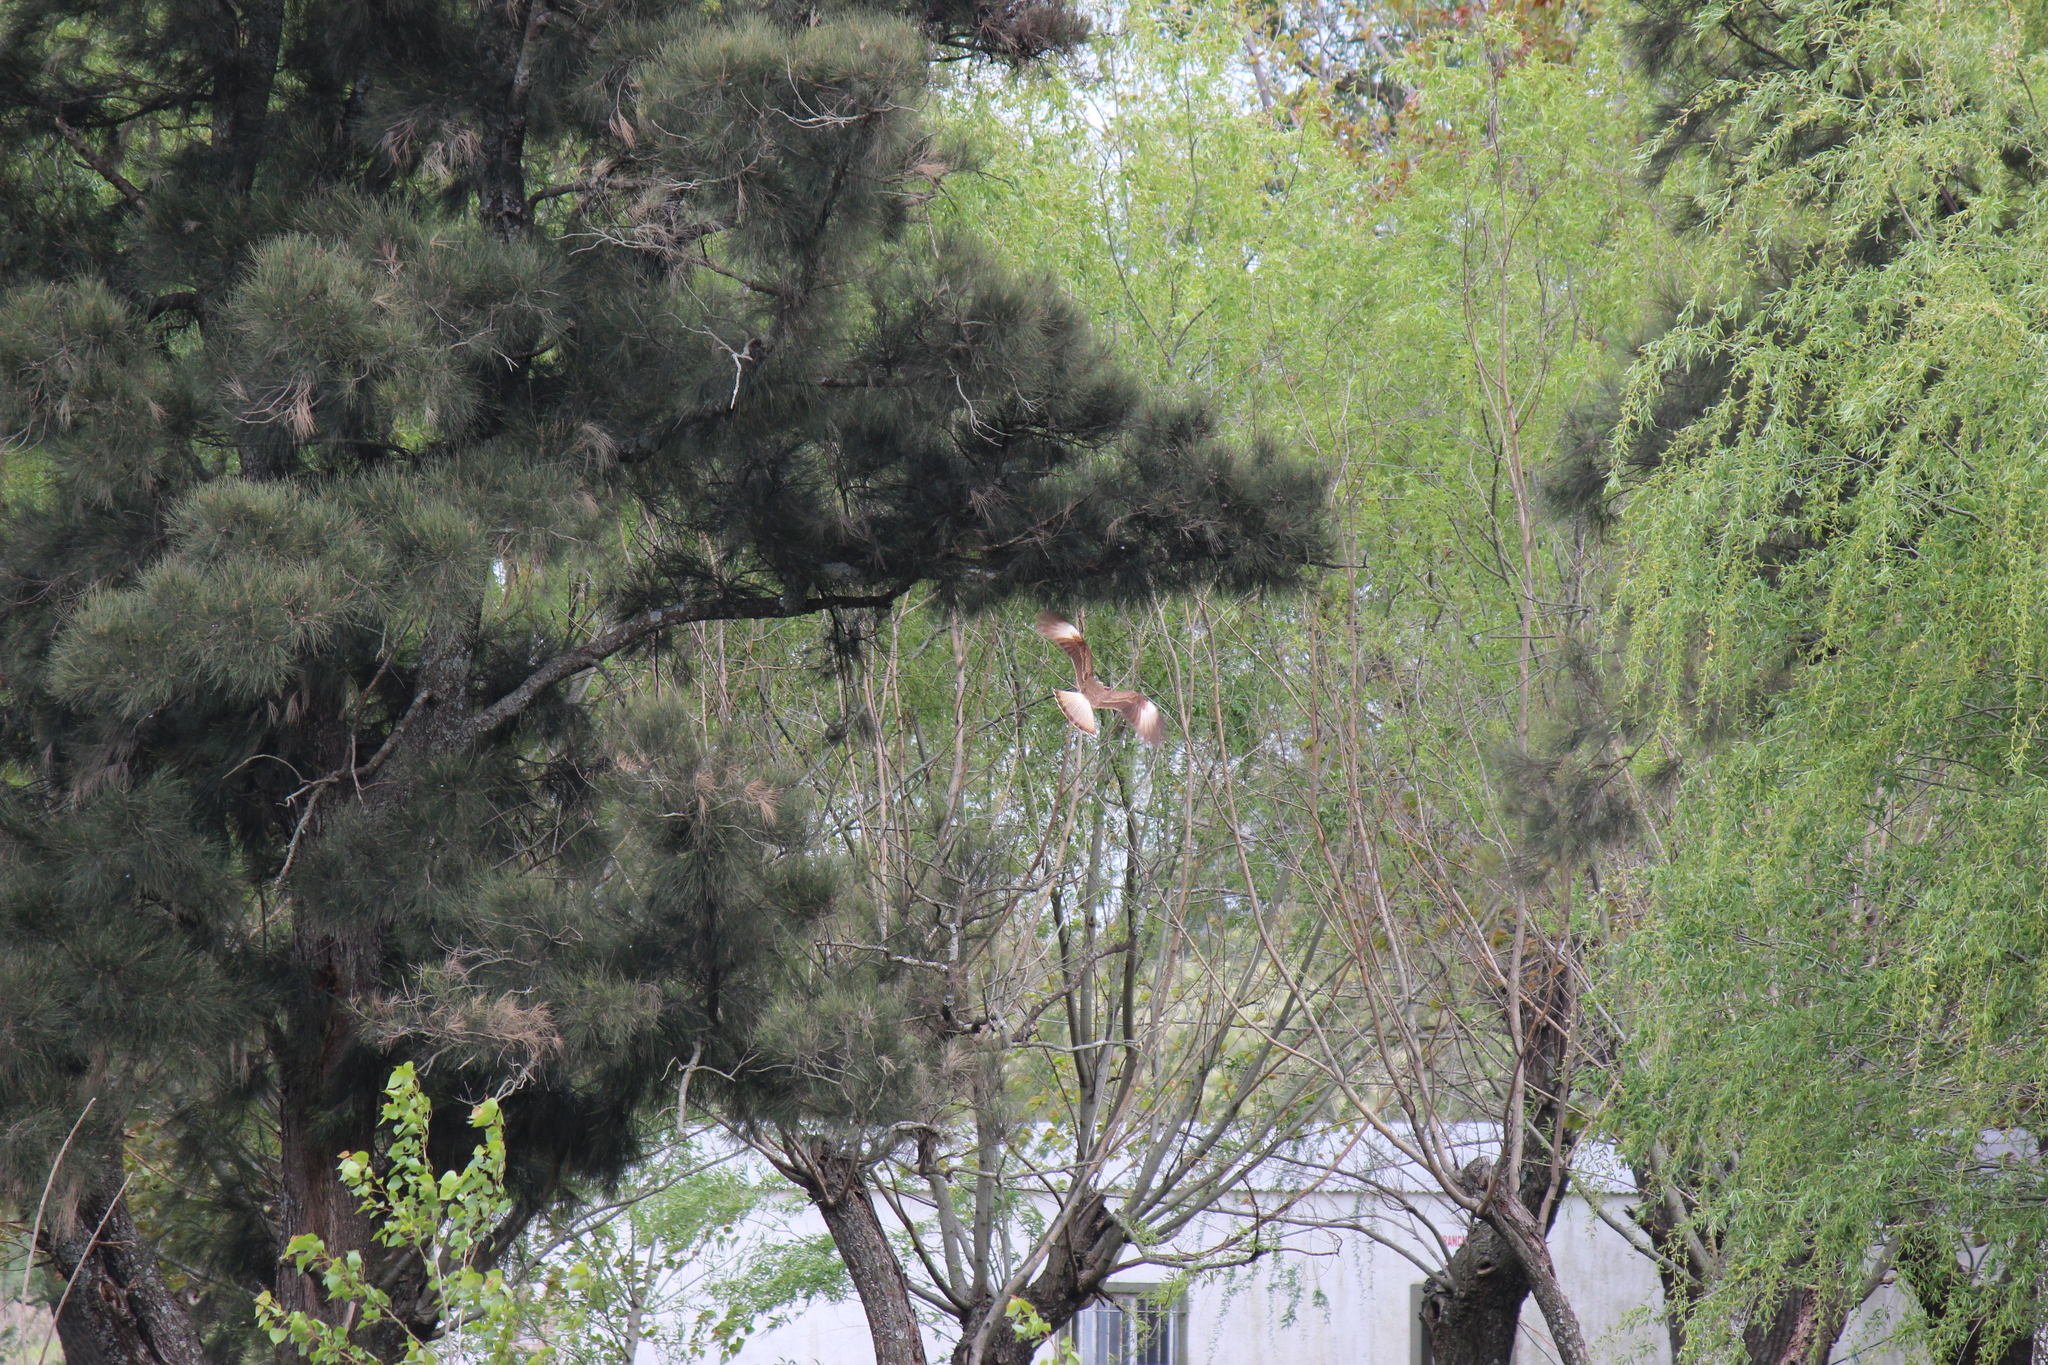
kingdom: Animalia
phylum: Chordata
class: Aves
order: Falconiformes
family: Falconidae
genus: Daptrius
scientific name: Daptrius
